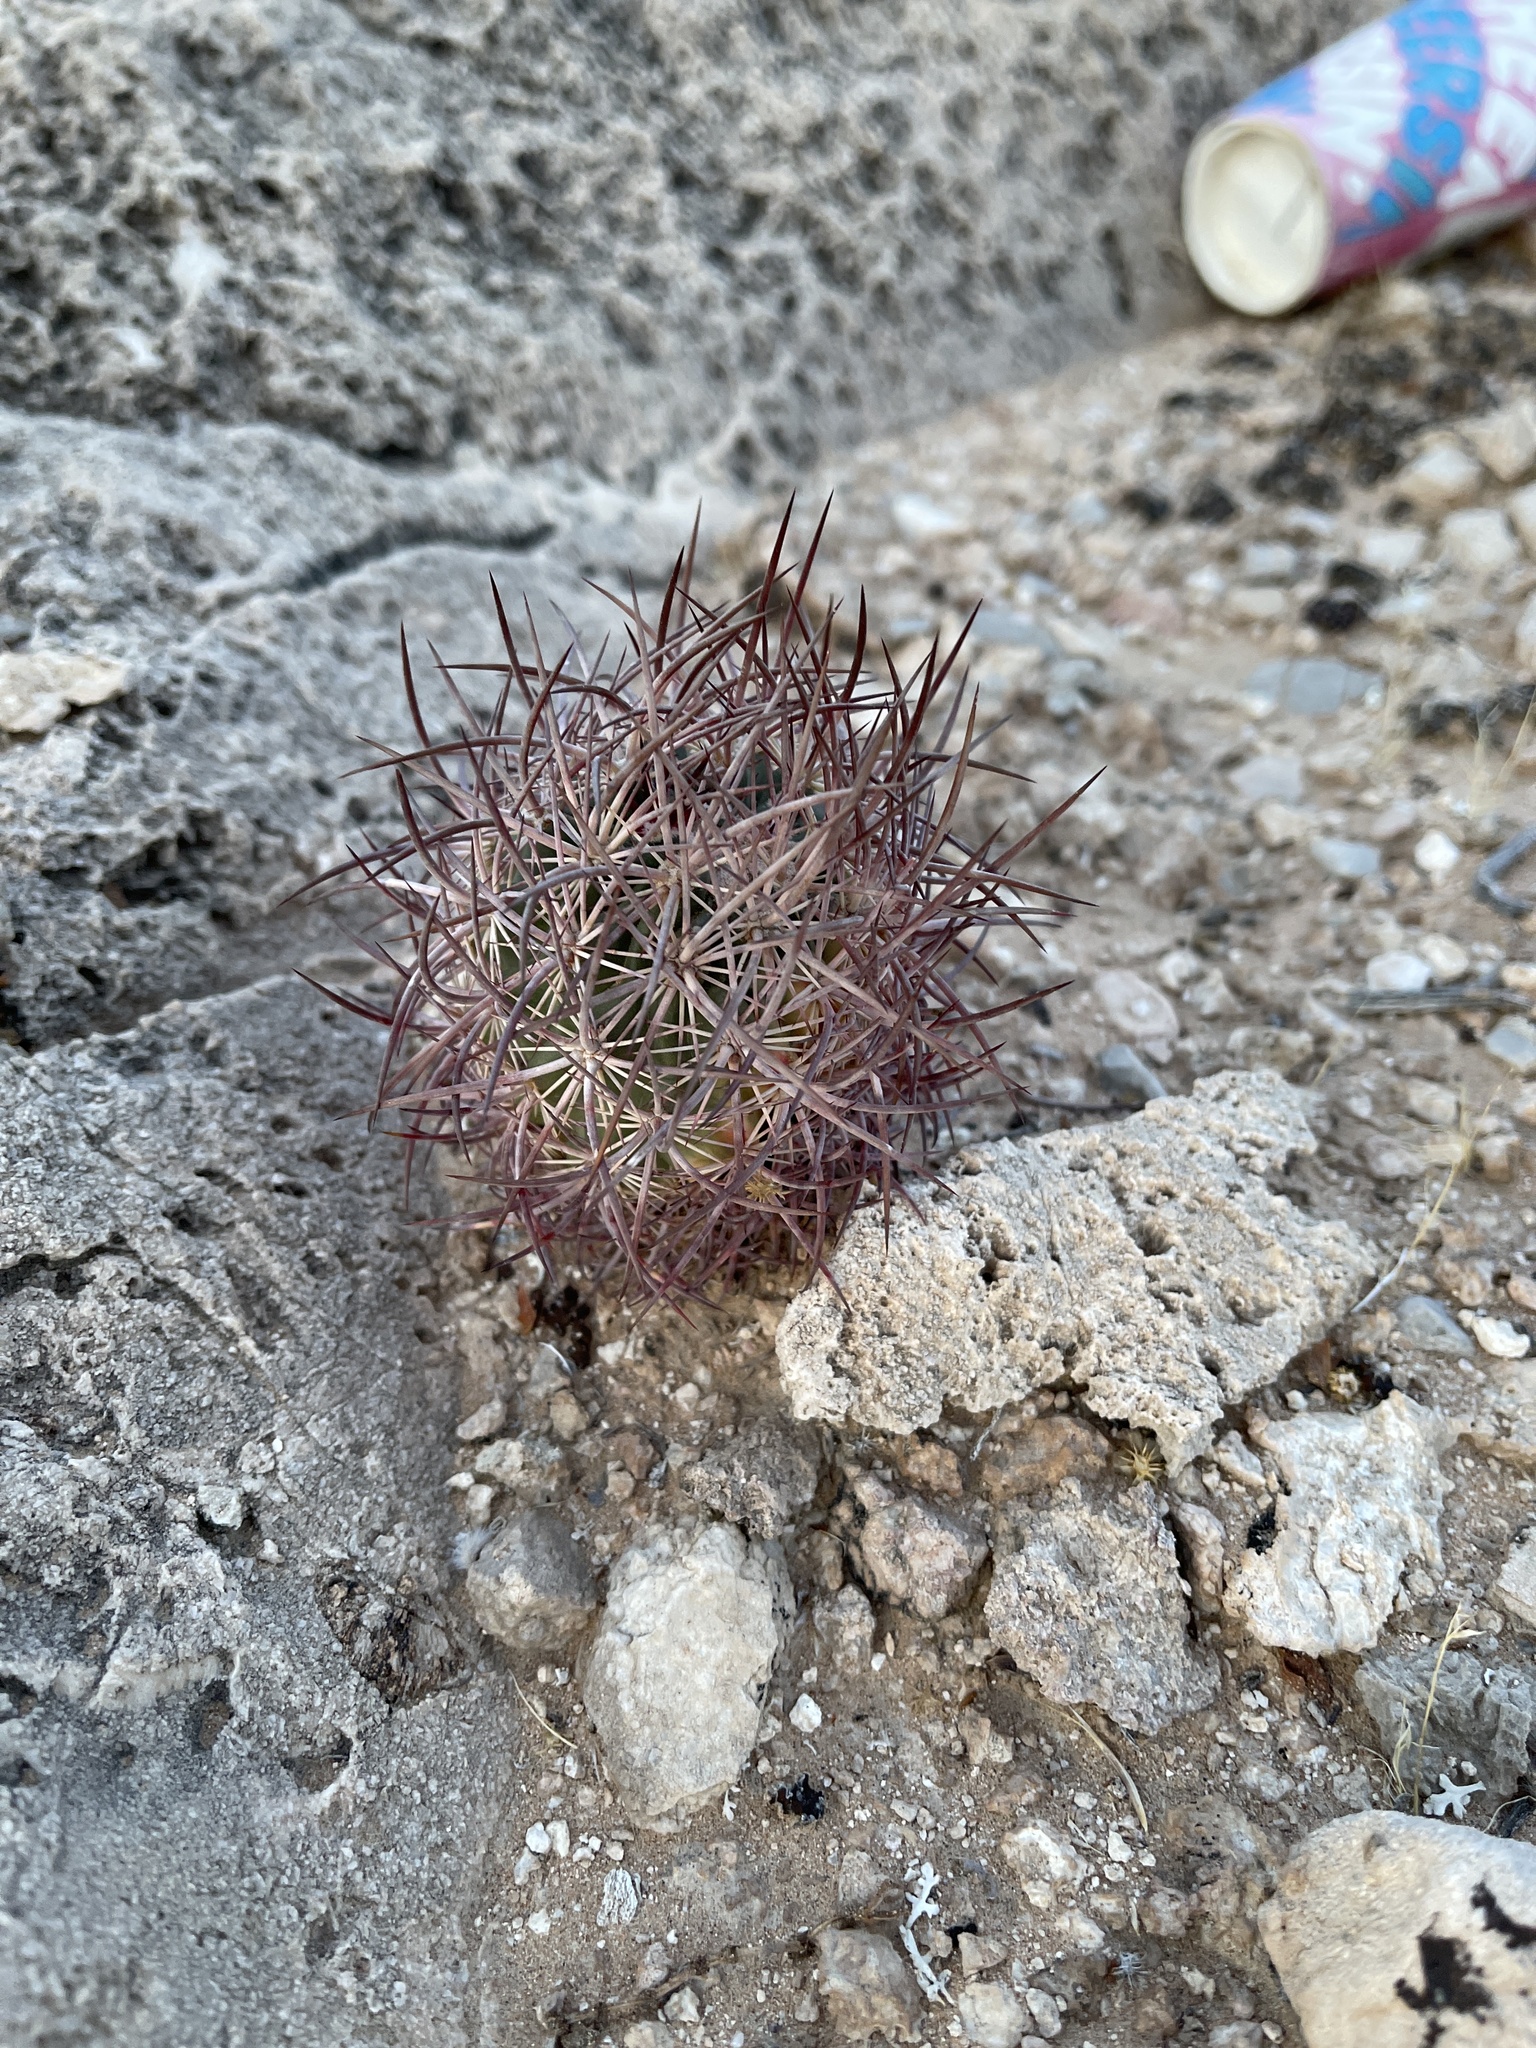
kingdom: Plantae
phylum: Tracheophyta
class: Magnoliopsida
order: Caryophyllales
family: Cactaceae
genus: Sclerocactus
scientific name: Sclerocactus johnsonii
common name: Eight-spine fishhook cactus
